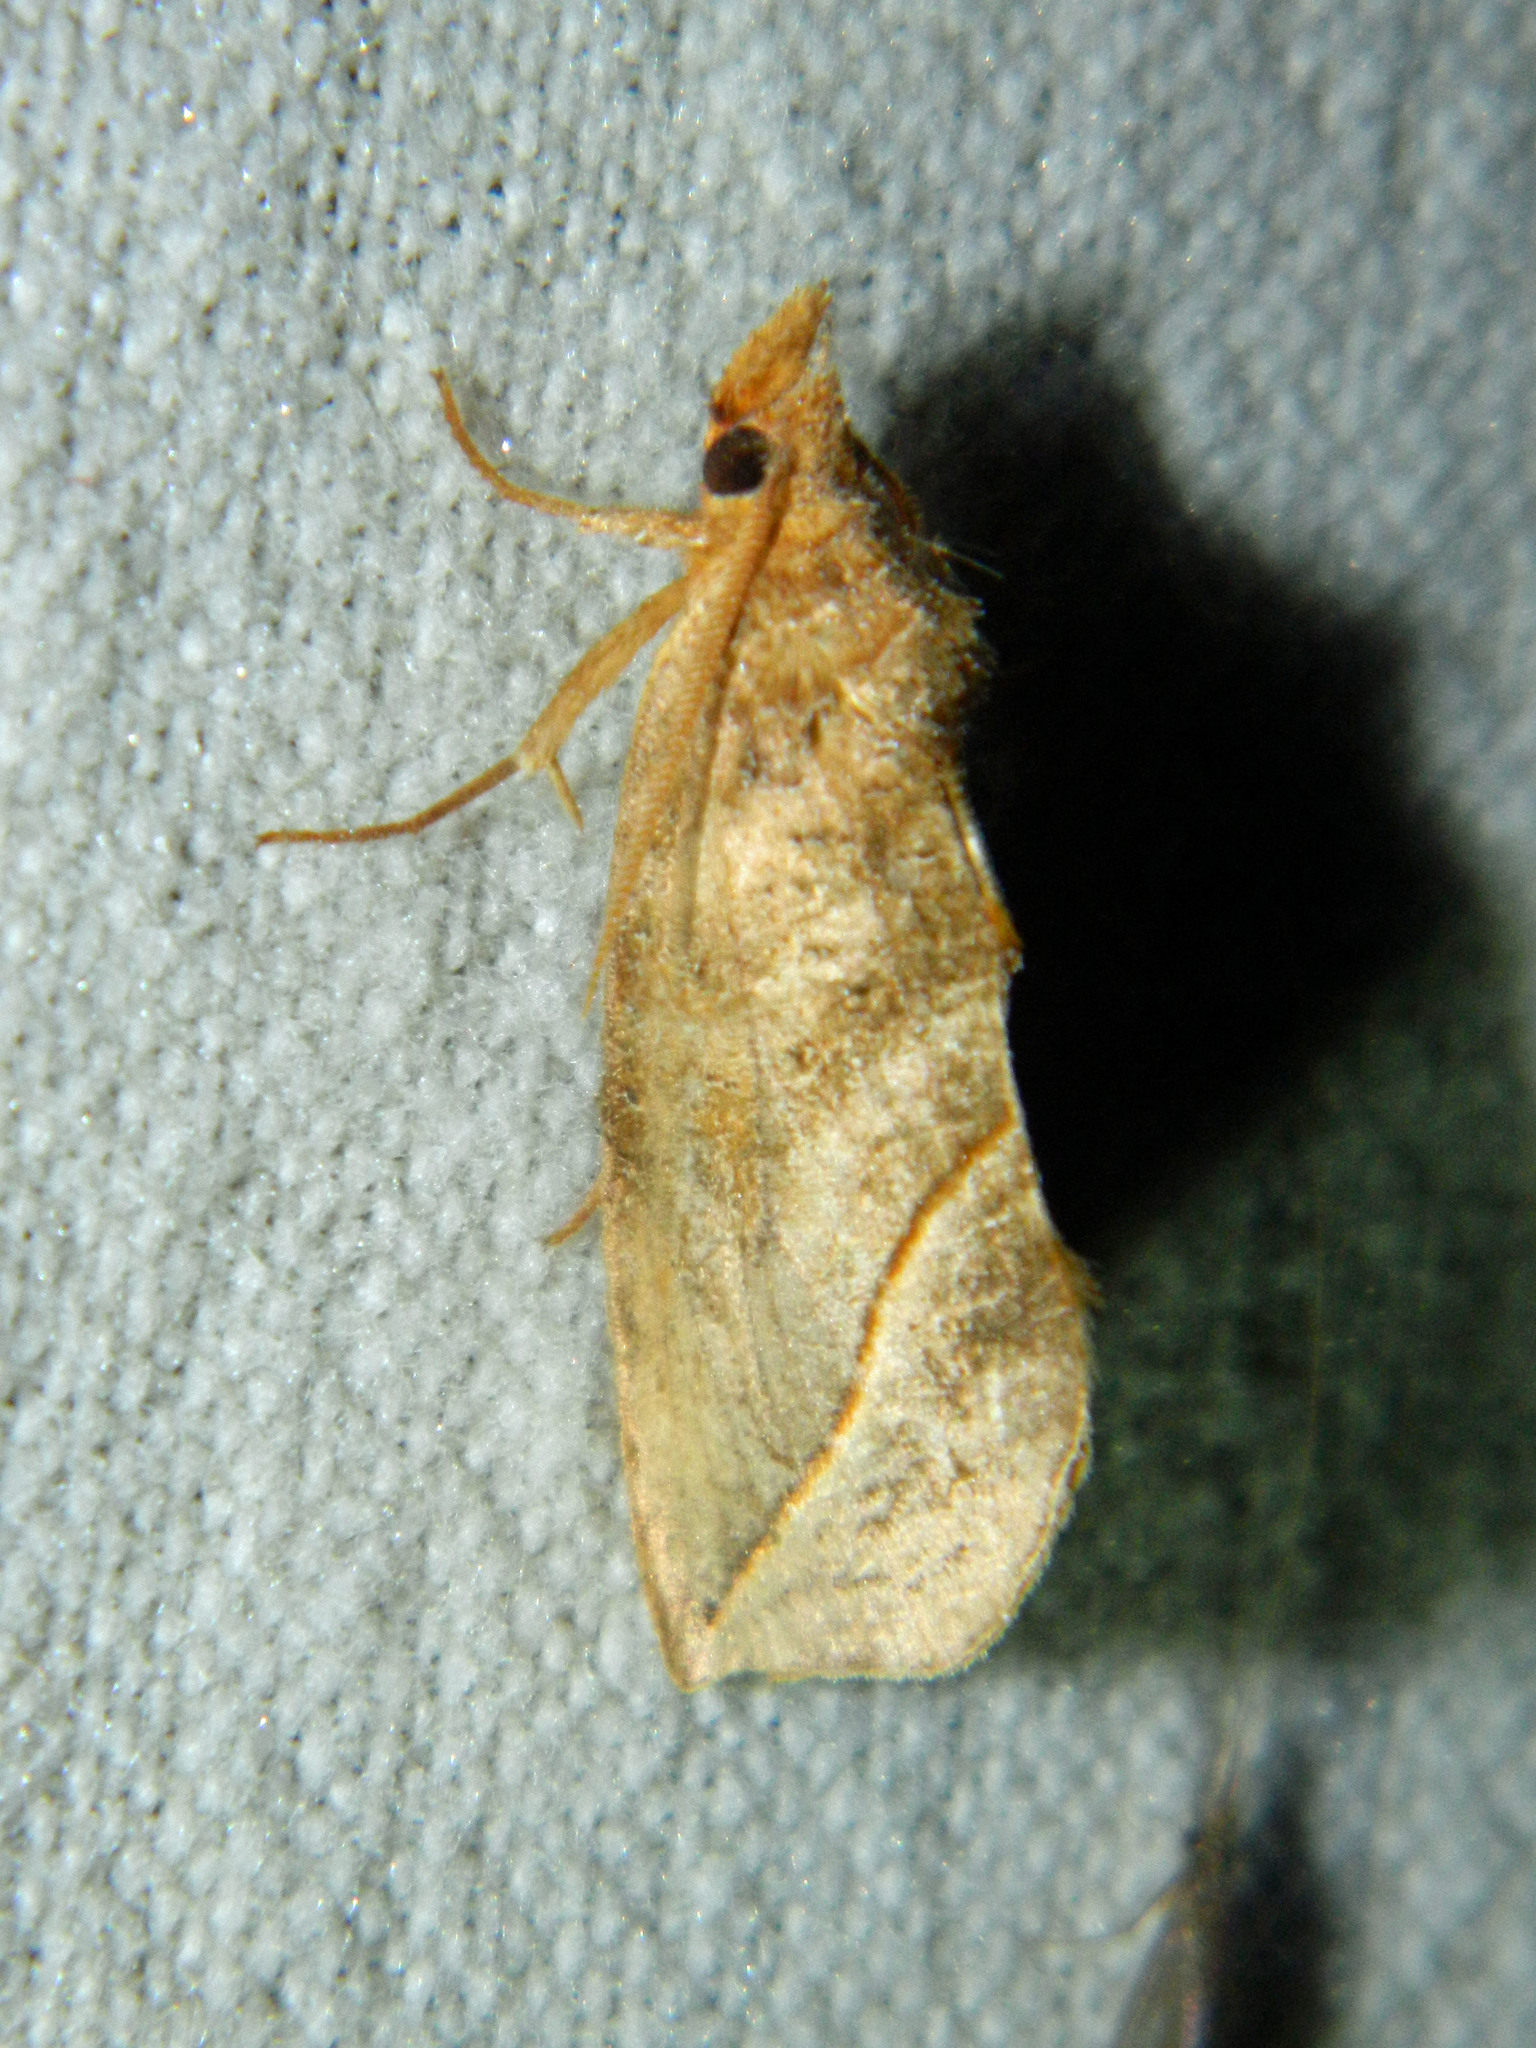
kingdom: Animalia
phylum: Arthropoda
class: Insecta
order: Lepidoptera
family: Erebidae
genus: Calyptra
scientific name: Calyptra canadensis
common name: Canadian owlet
